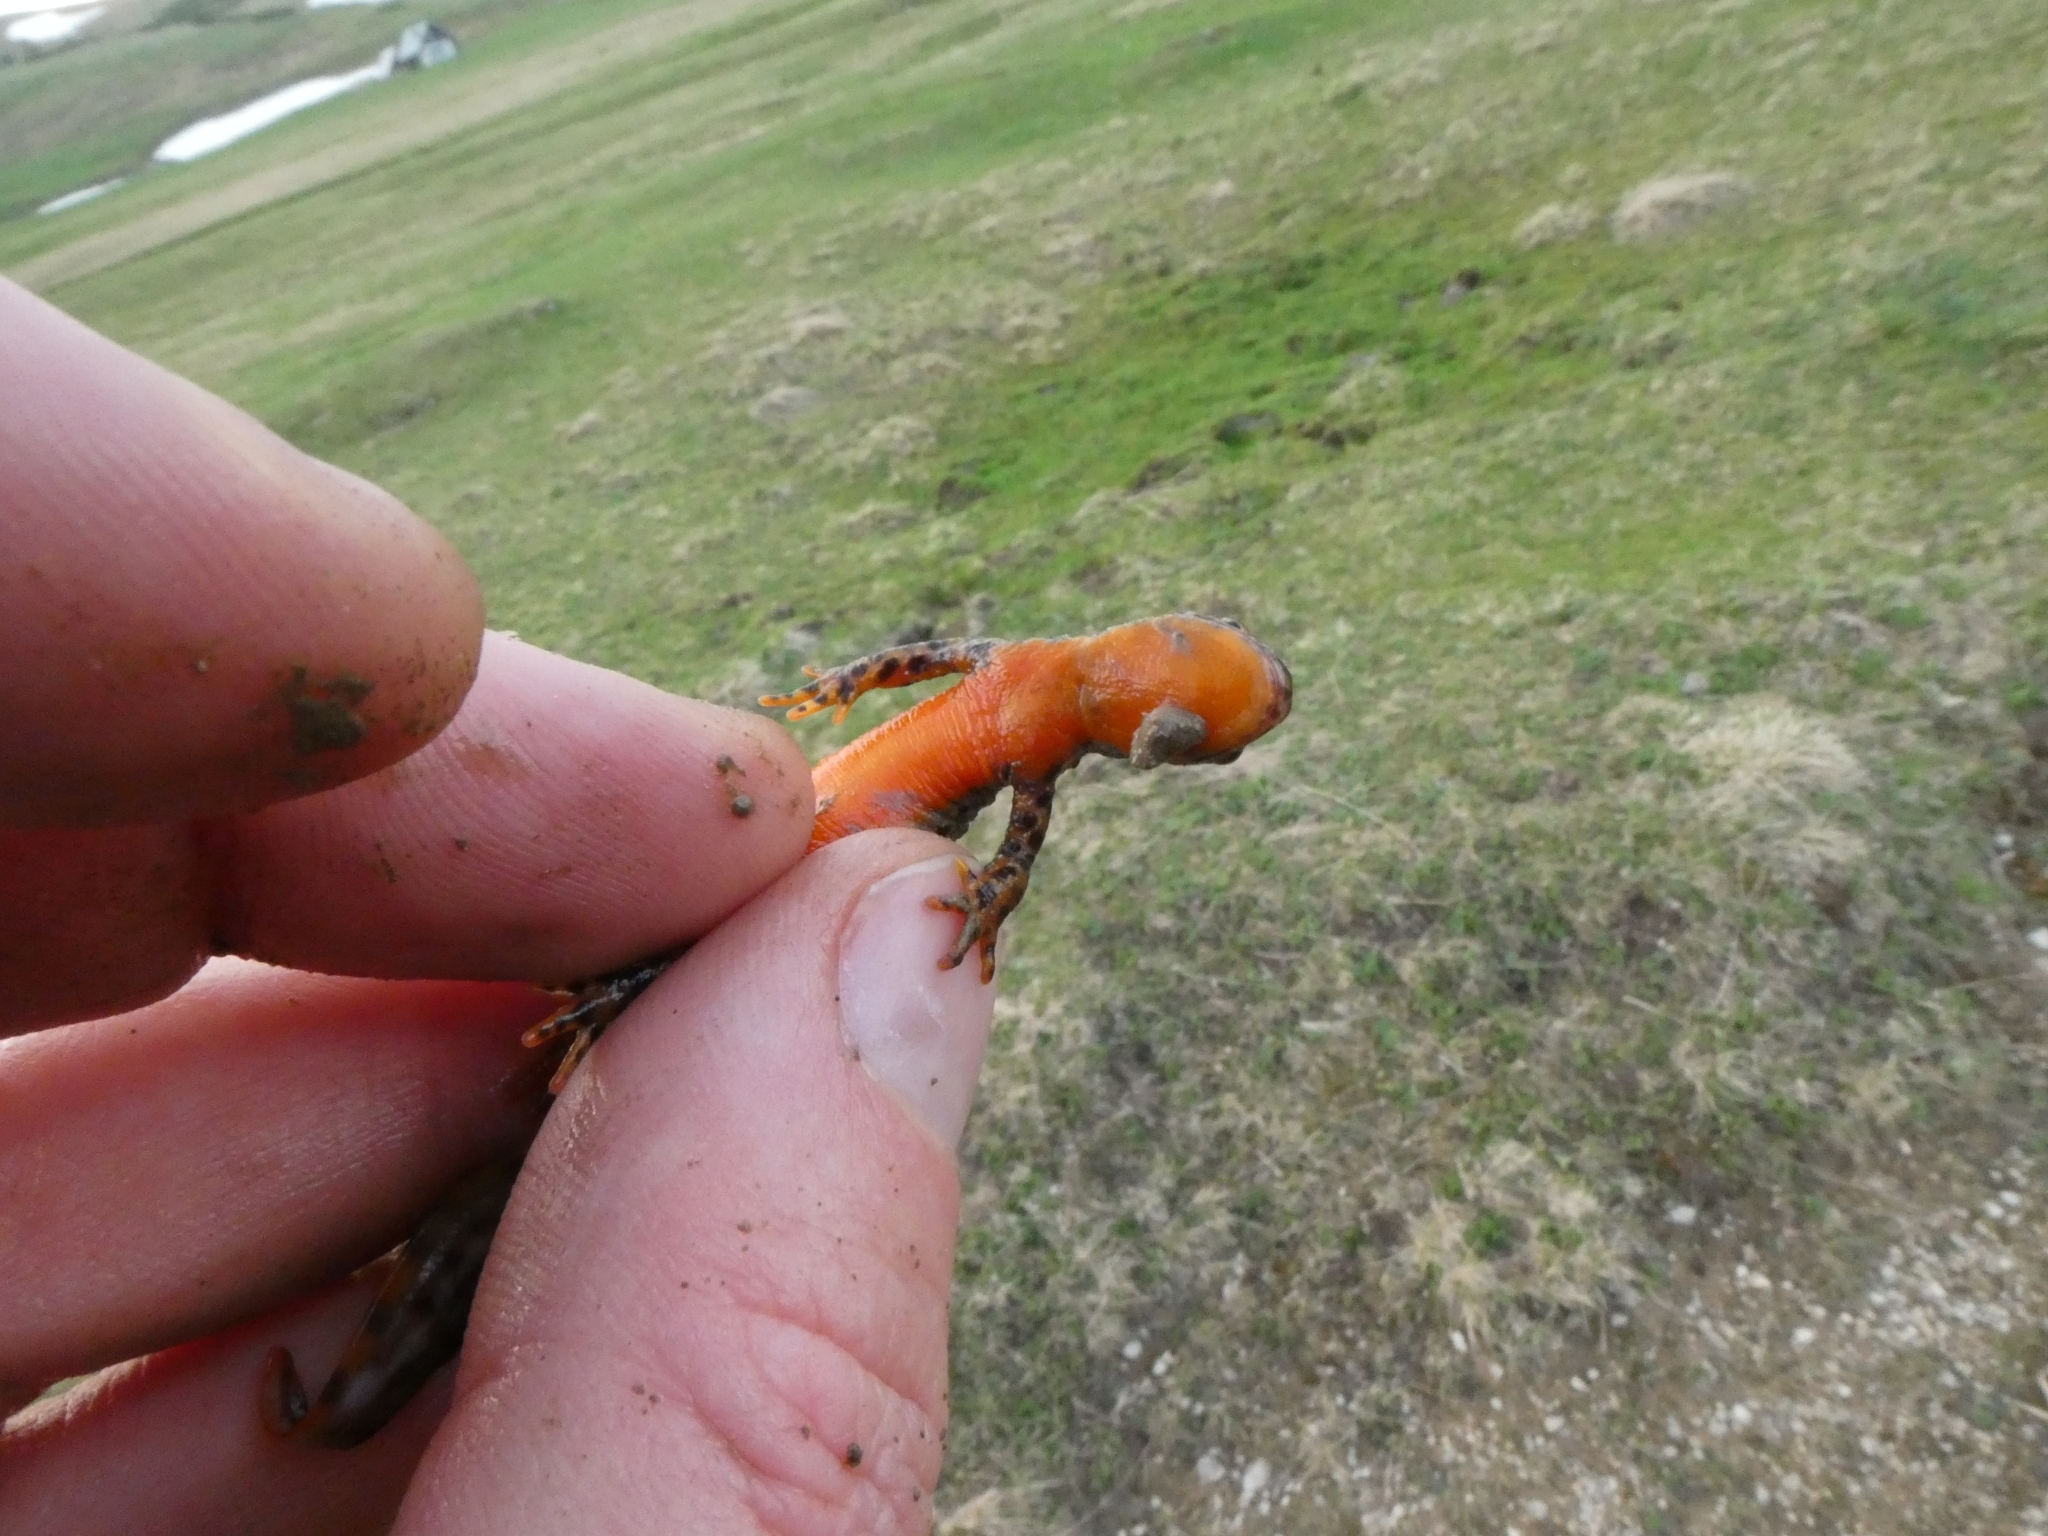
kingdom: Animalia
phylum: Chordata
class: Amphibia
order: Caudata
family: Salamandridae
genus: Ichthyosaura
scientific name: Ichthyosaura alpestris
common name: Alpine newt
